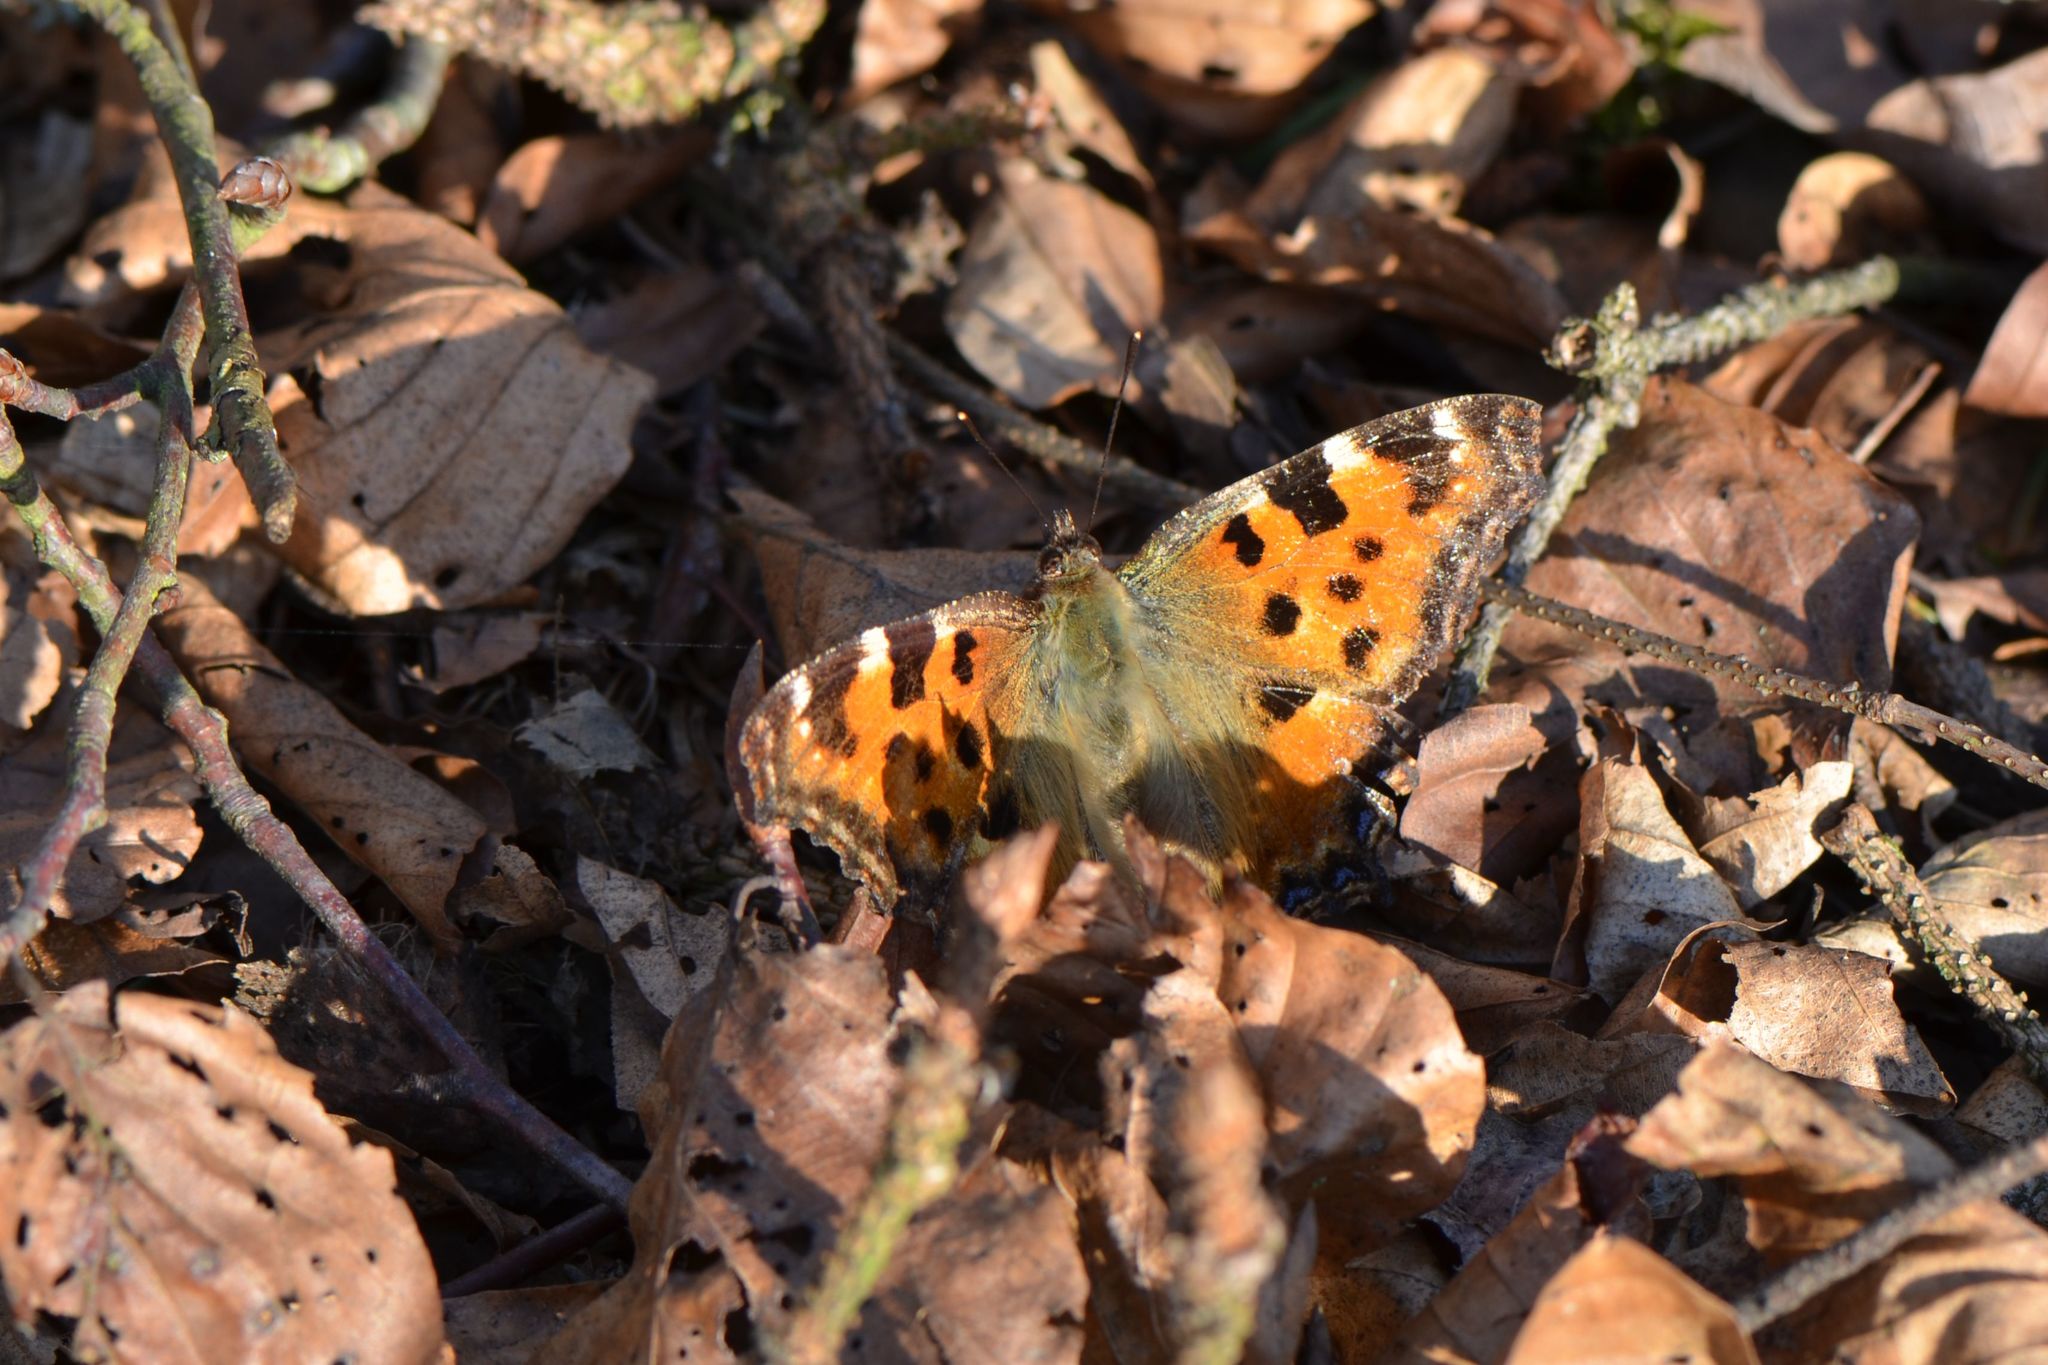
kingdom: Animalia
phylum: Arthropoda
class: Insecta
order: Lepidoptera
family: Nymphalidae
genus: Nymphalis
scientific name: Nymphalis polychloros
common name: Large tortoiseshell
